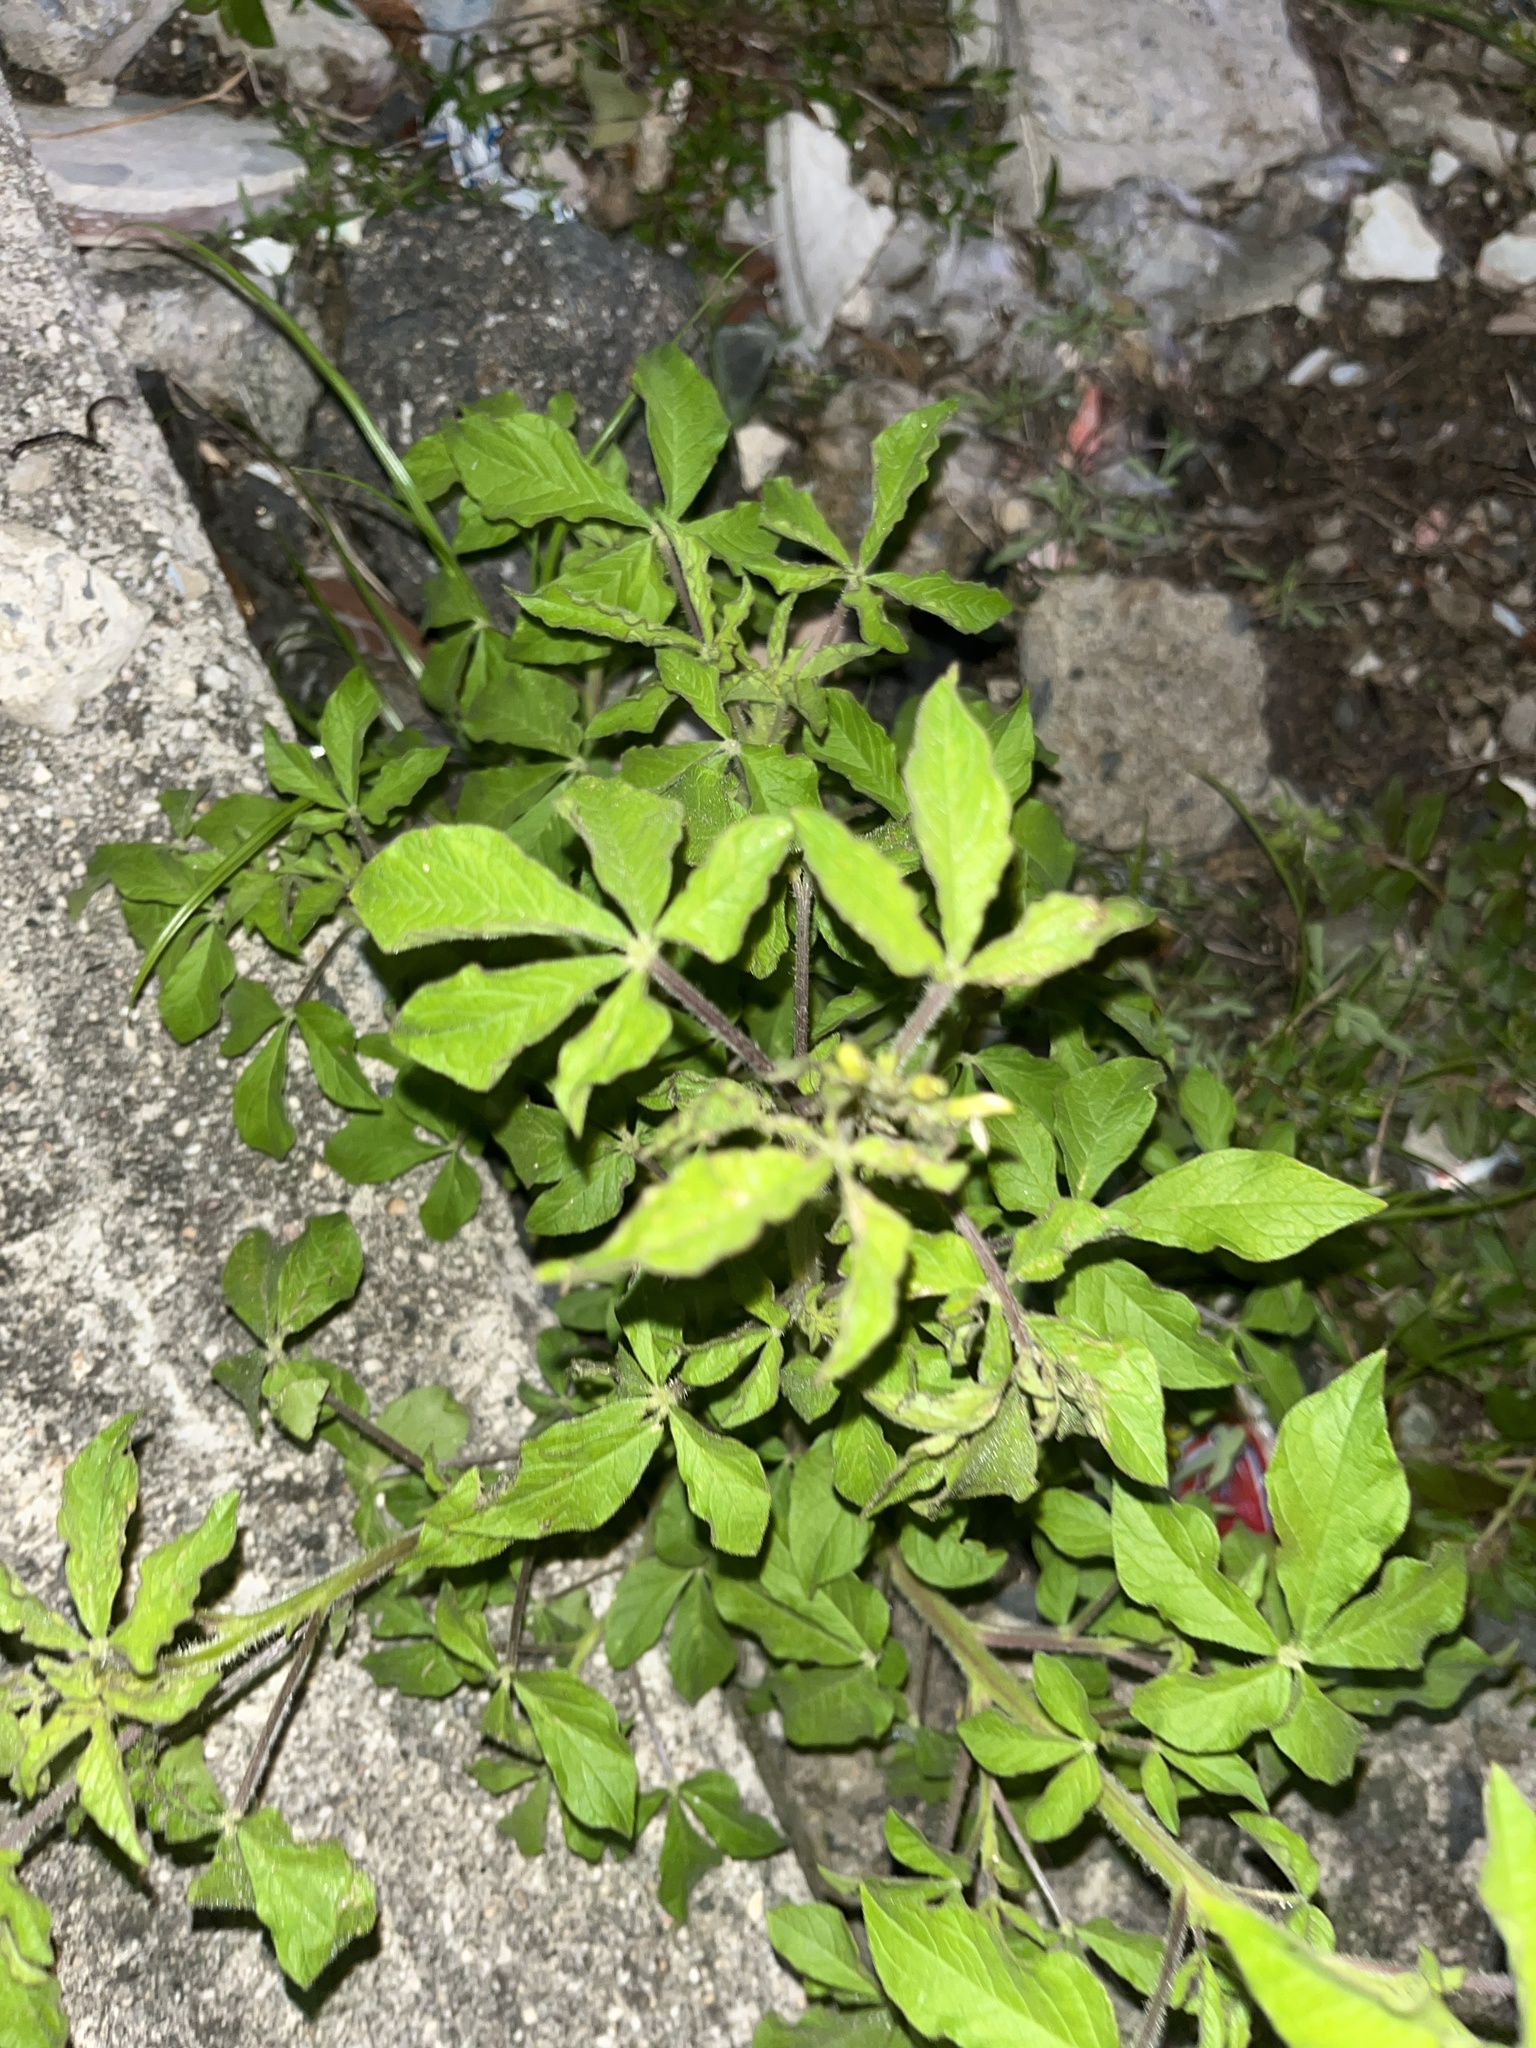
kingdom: Plantae
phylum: Tracheophyta
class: Magnoliopsida
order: Brassicales
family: Cleomaceae
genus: Arivela
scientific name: Arivela viscosa
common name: Asian spiderflower
